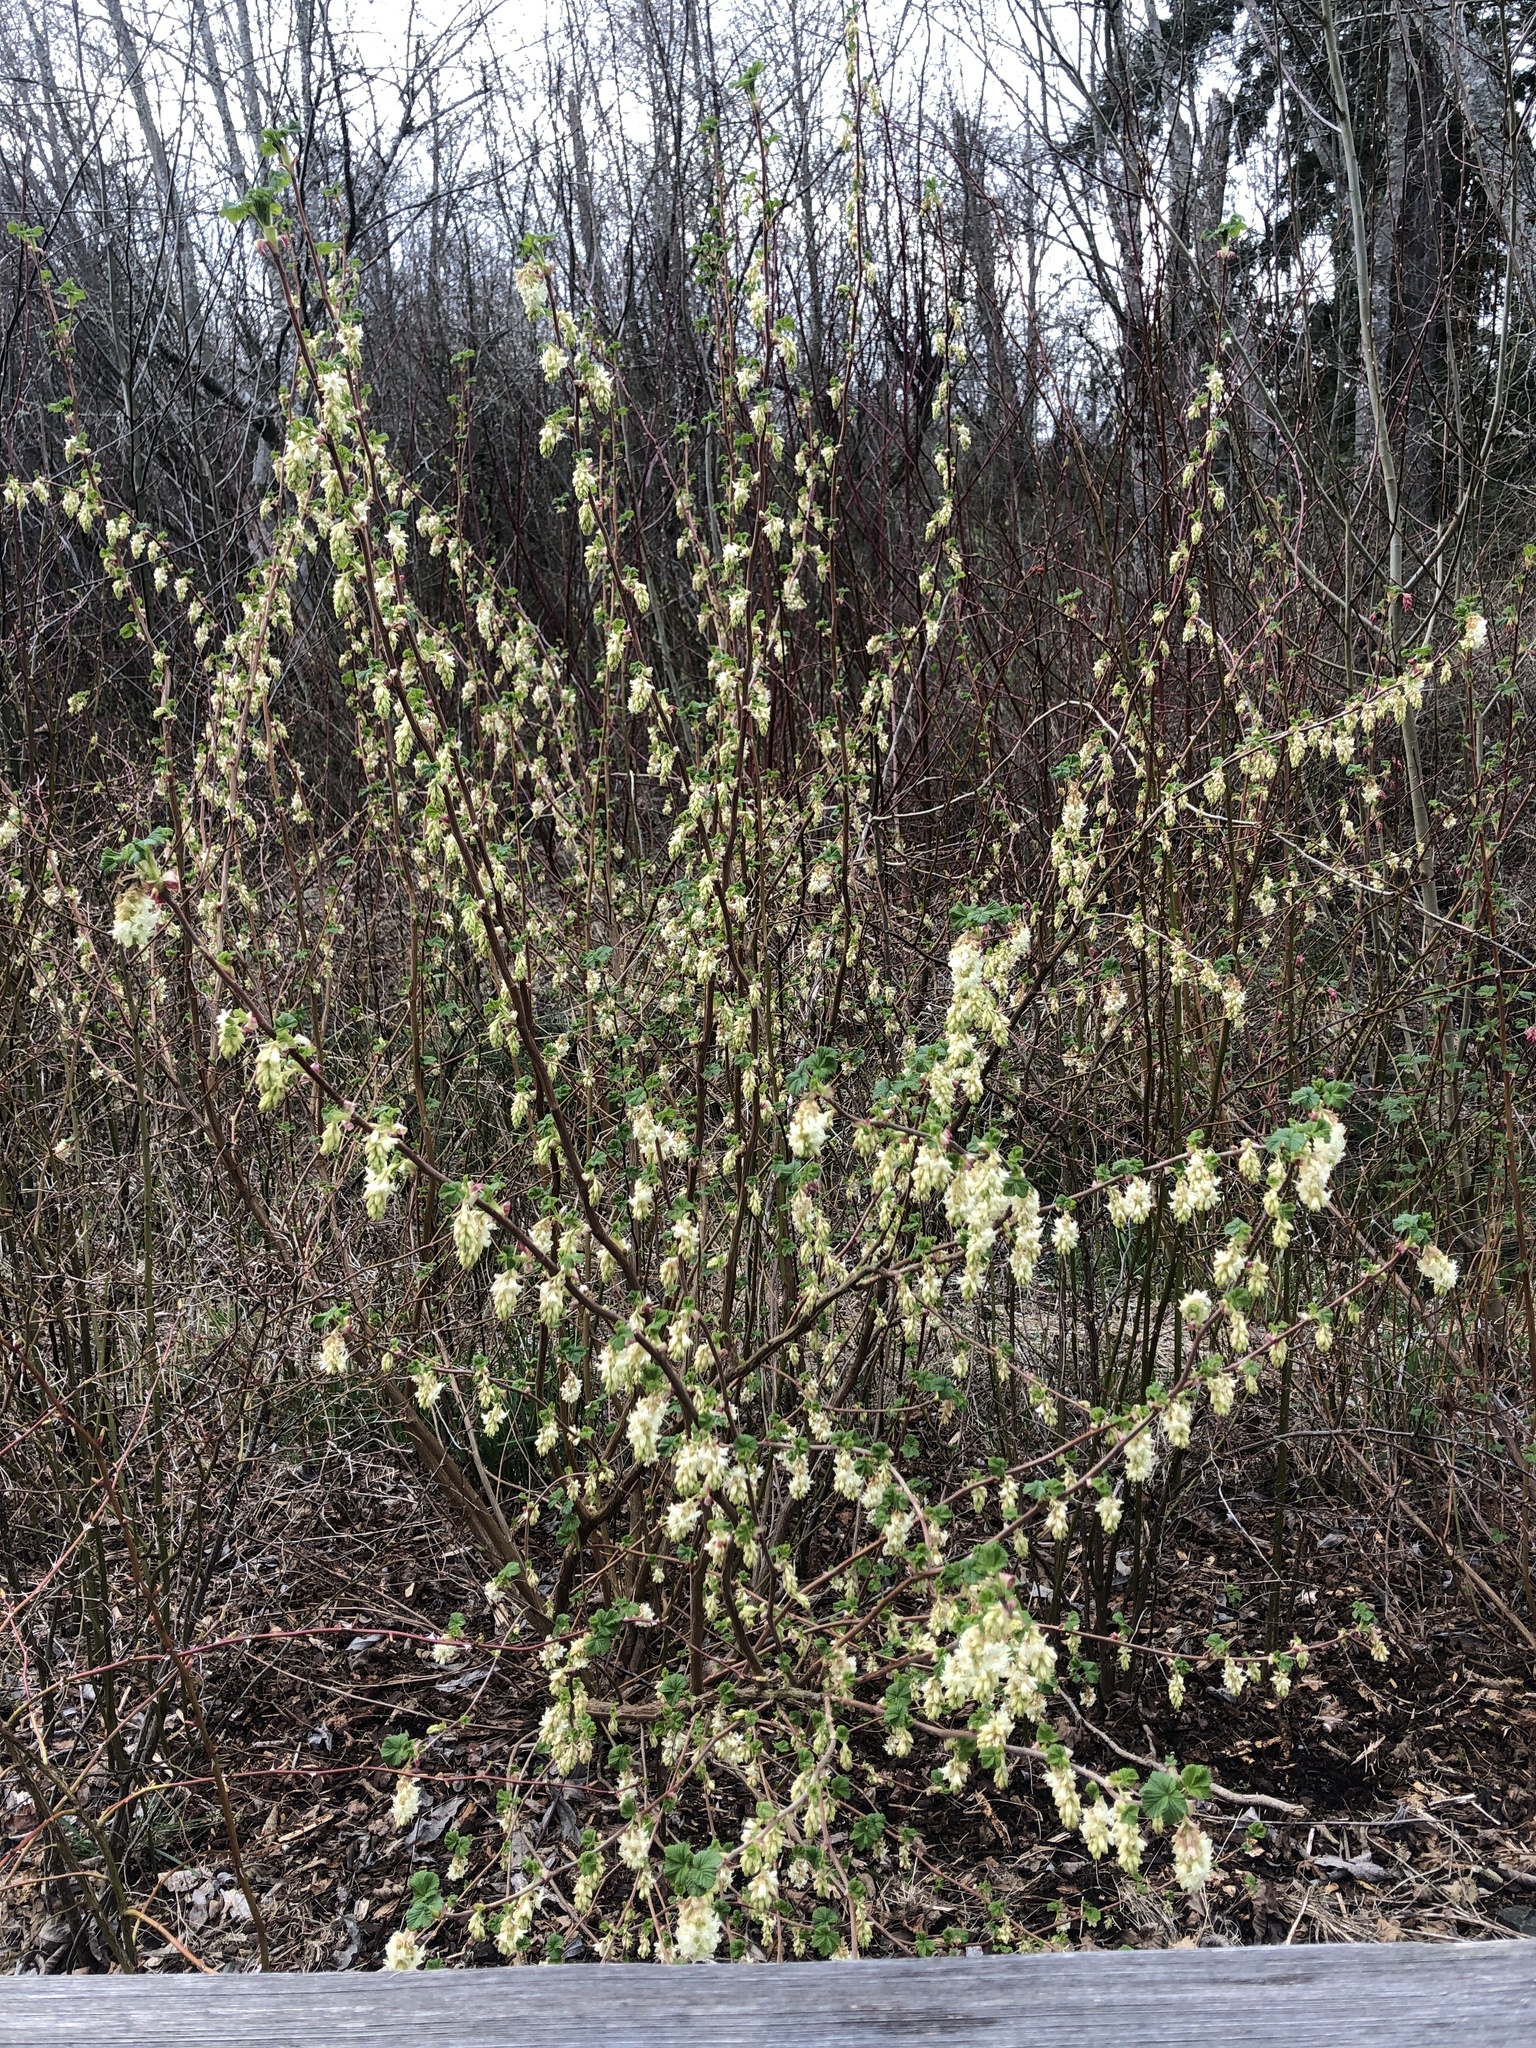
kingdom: Plantae
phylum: Tracheophyta
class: Magnoliopsida
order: Saxifragales
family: Grossulariaceae
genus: Ribes
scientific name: Ribes sanguineum
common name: Flowering currant
